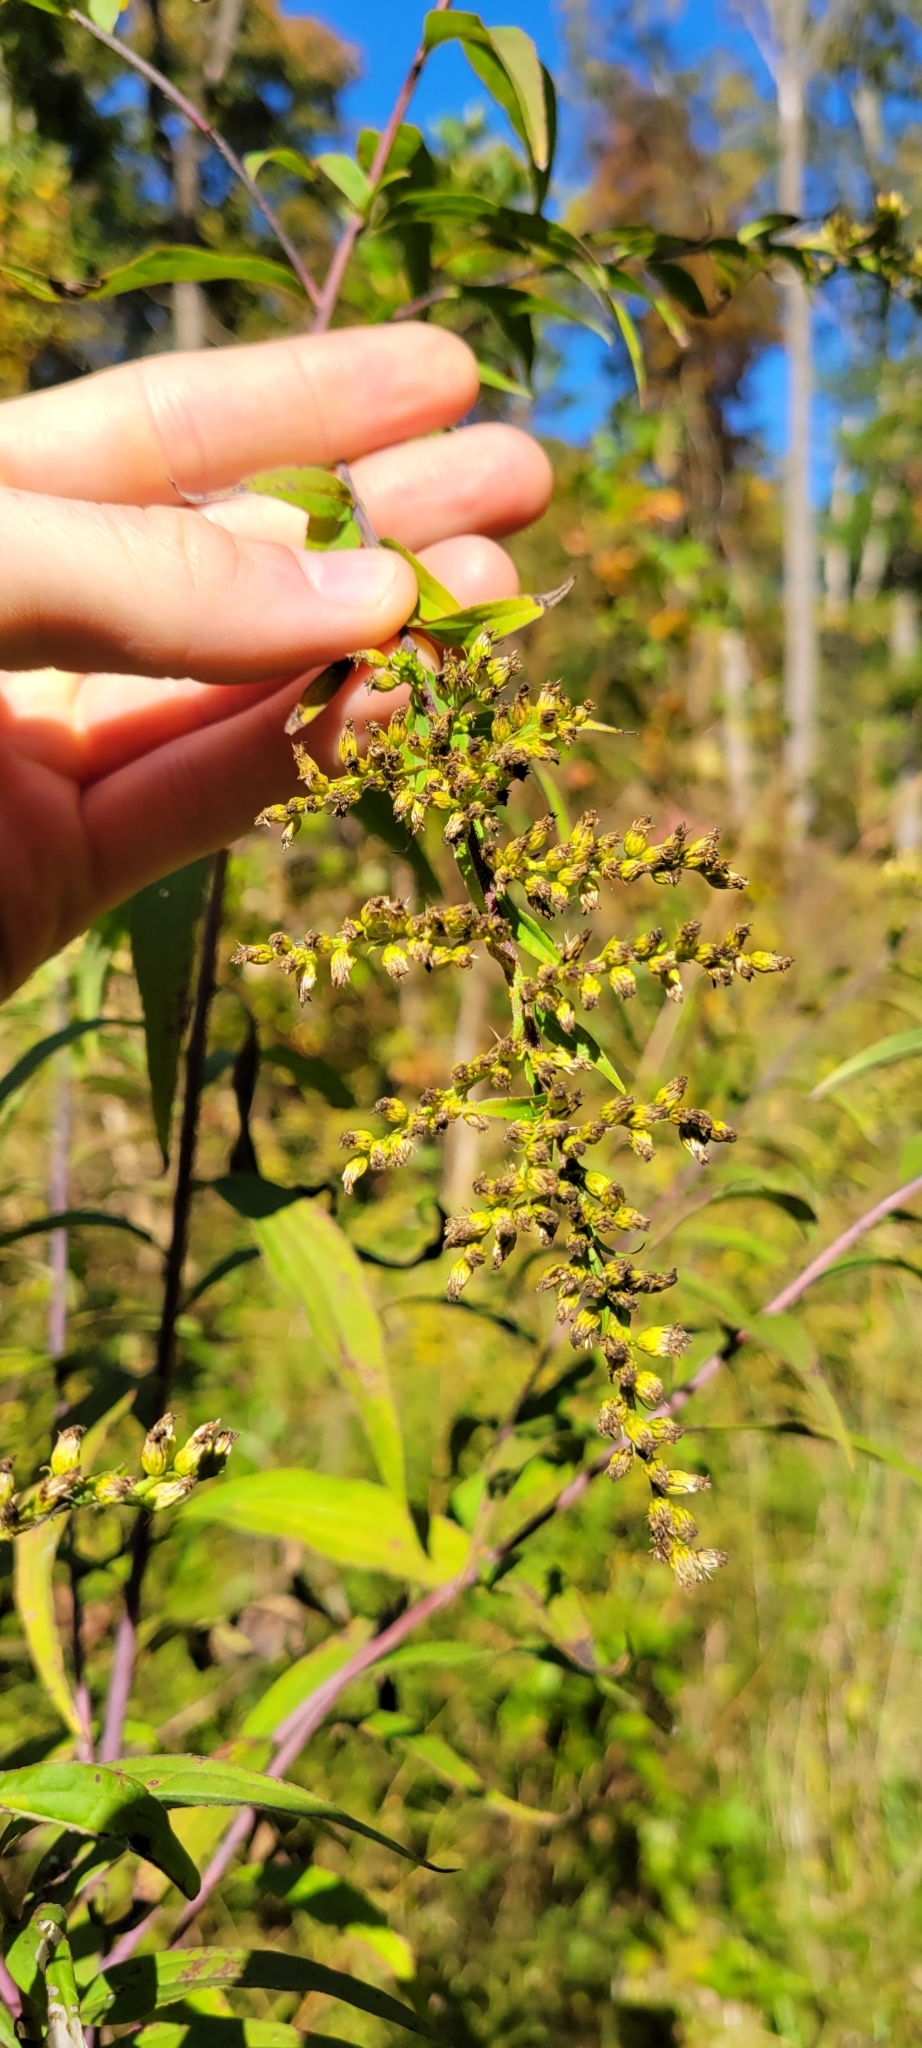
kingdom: Plantae
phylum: Tracheophyta
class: Magnoliopsida
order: Asterales
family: Asteraceae
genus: Solidago
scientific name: Solidago gigantea
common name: Giant goldenrod
